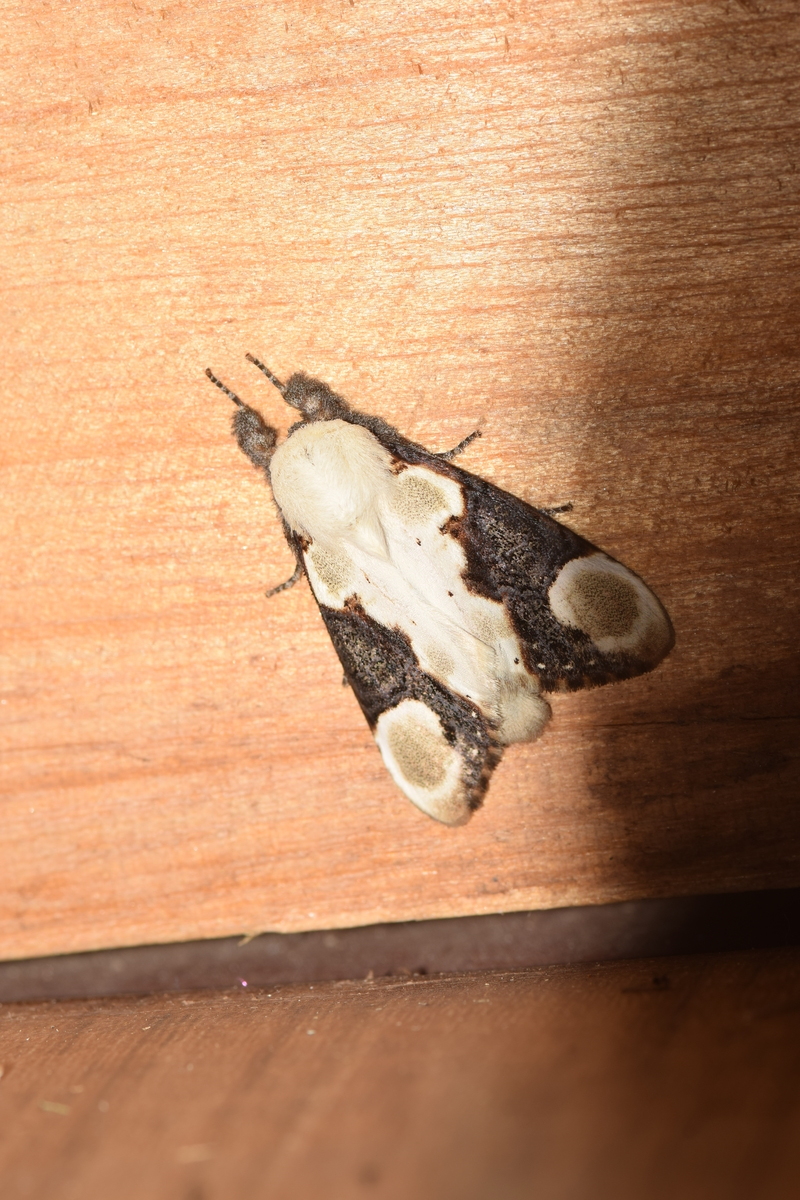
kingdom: Animalia
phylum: Arthropoda
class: Insecta
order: Lepidoptera
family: Notodontidae
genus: Formofentonia
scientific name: Formofentonia orbifer
